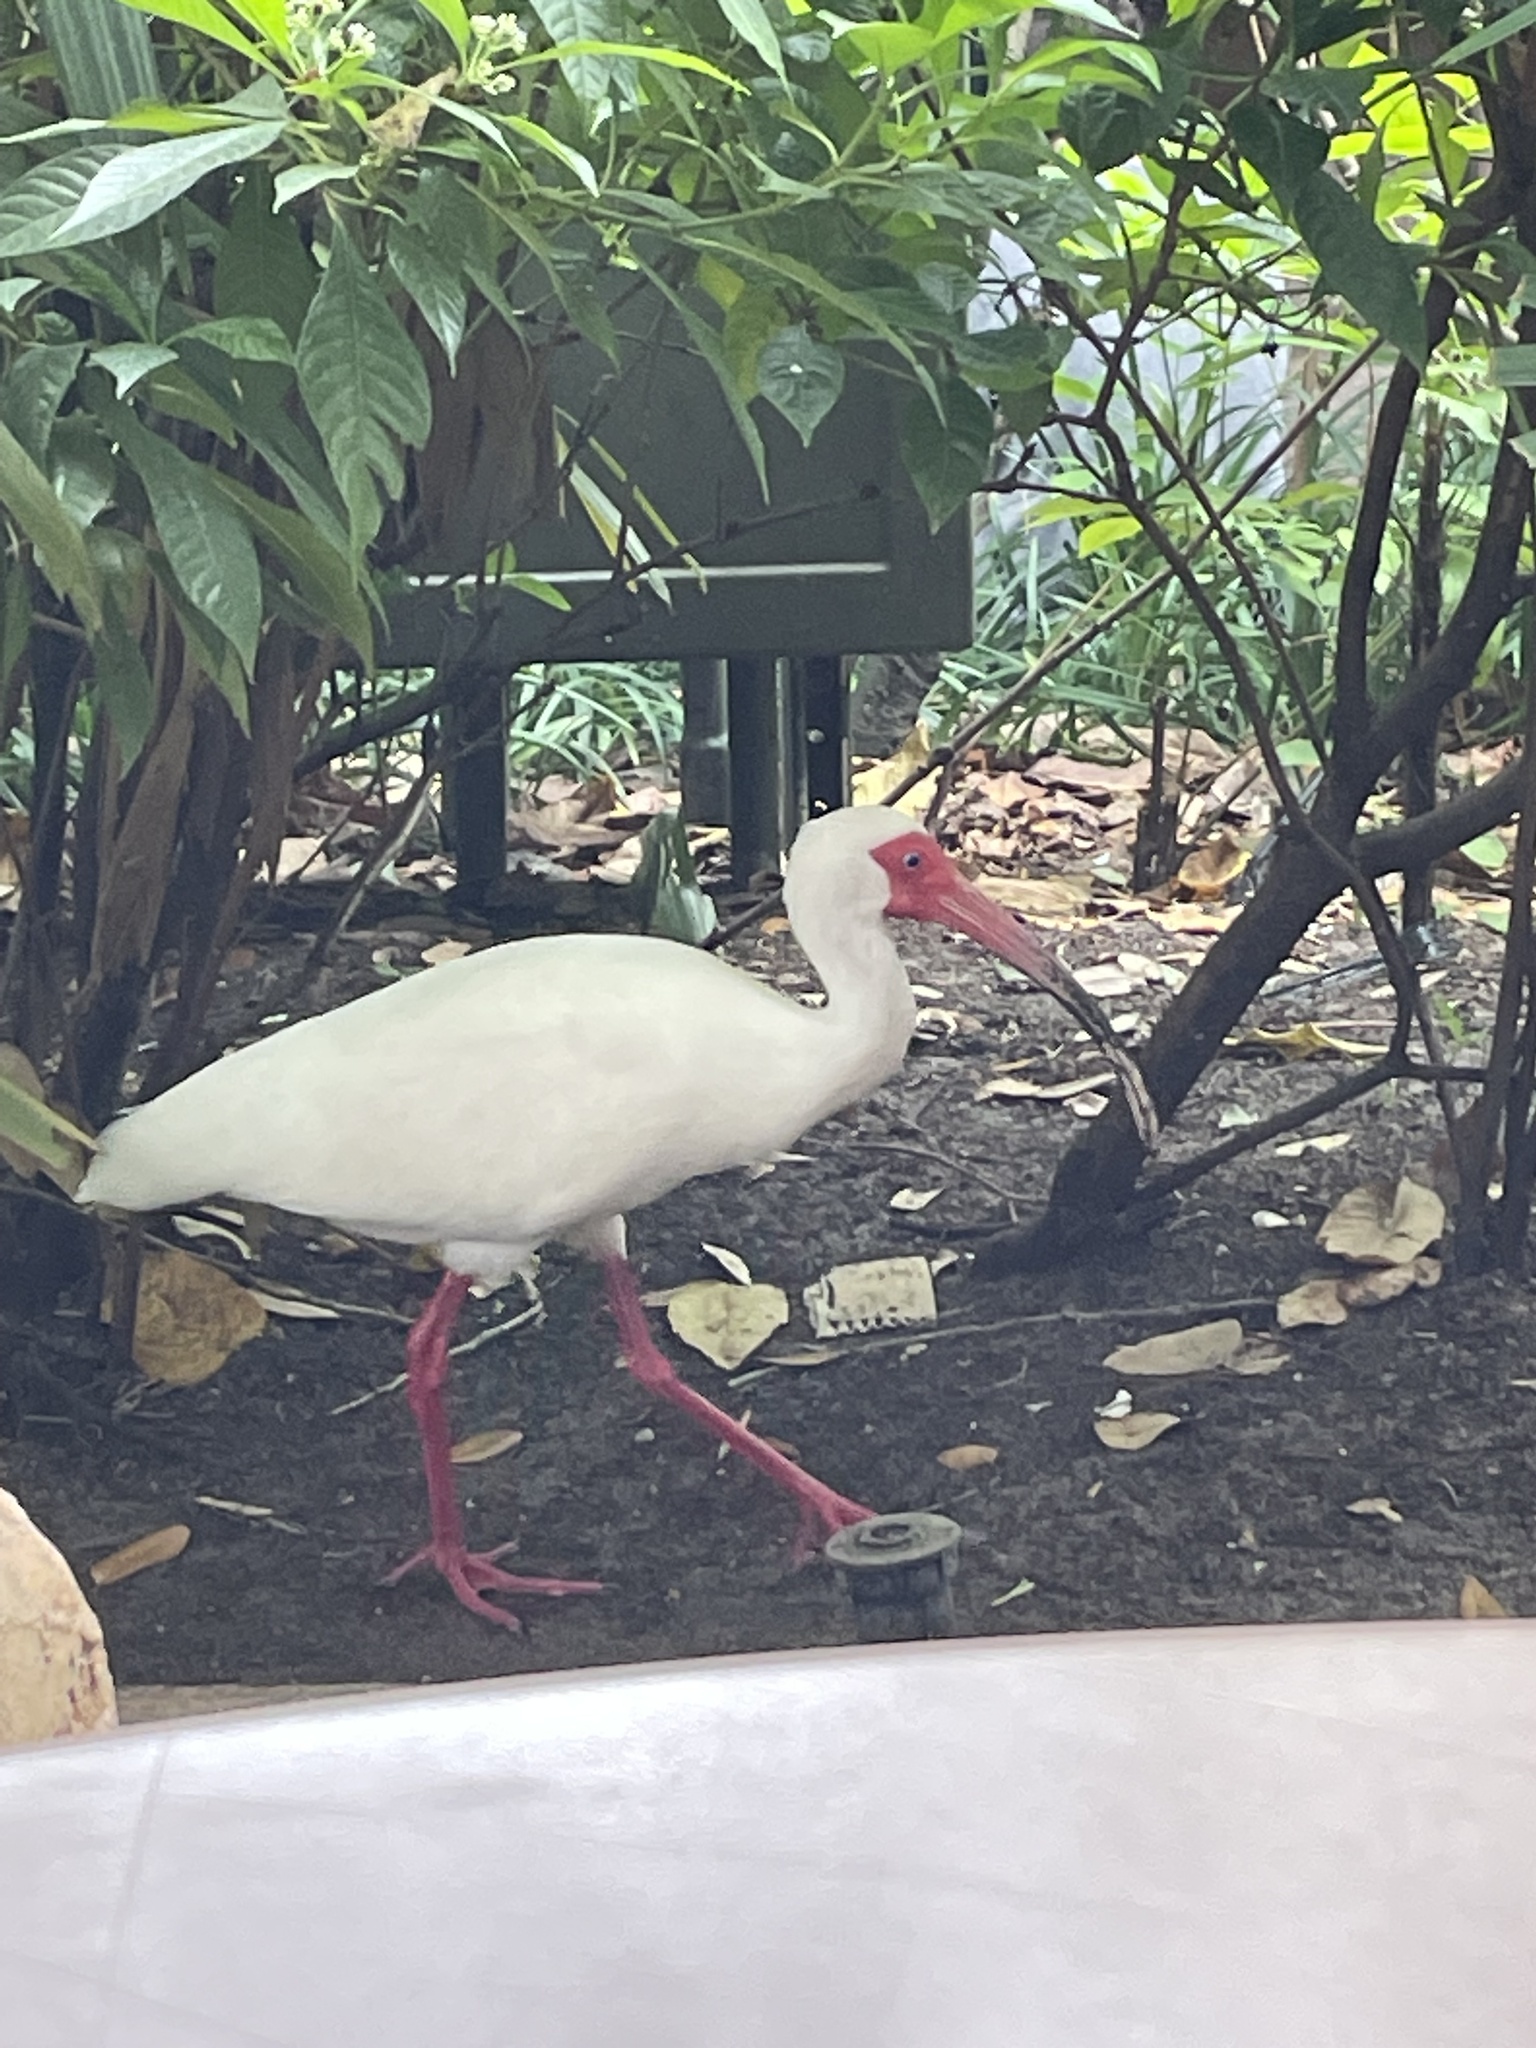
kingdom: Animalia
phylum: Chordata
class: Aves
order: Pelecaniformes
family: Threskiornithidae
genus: Eudocimus
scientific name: Eudocimus albus
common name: White ibis
